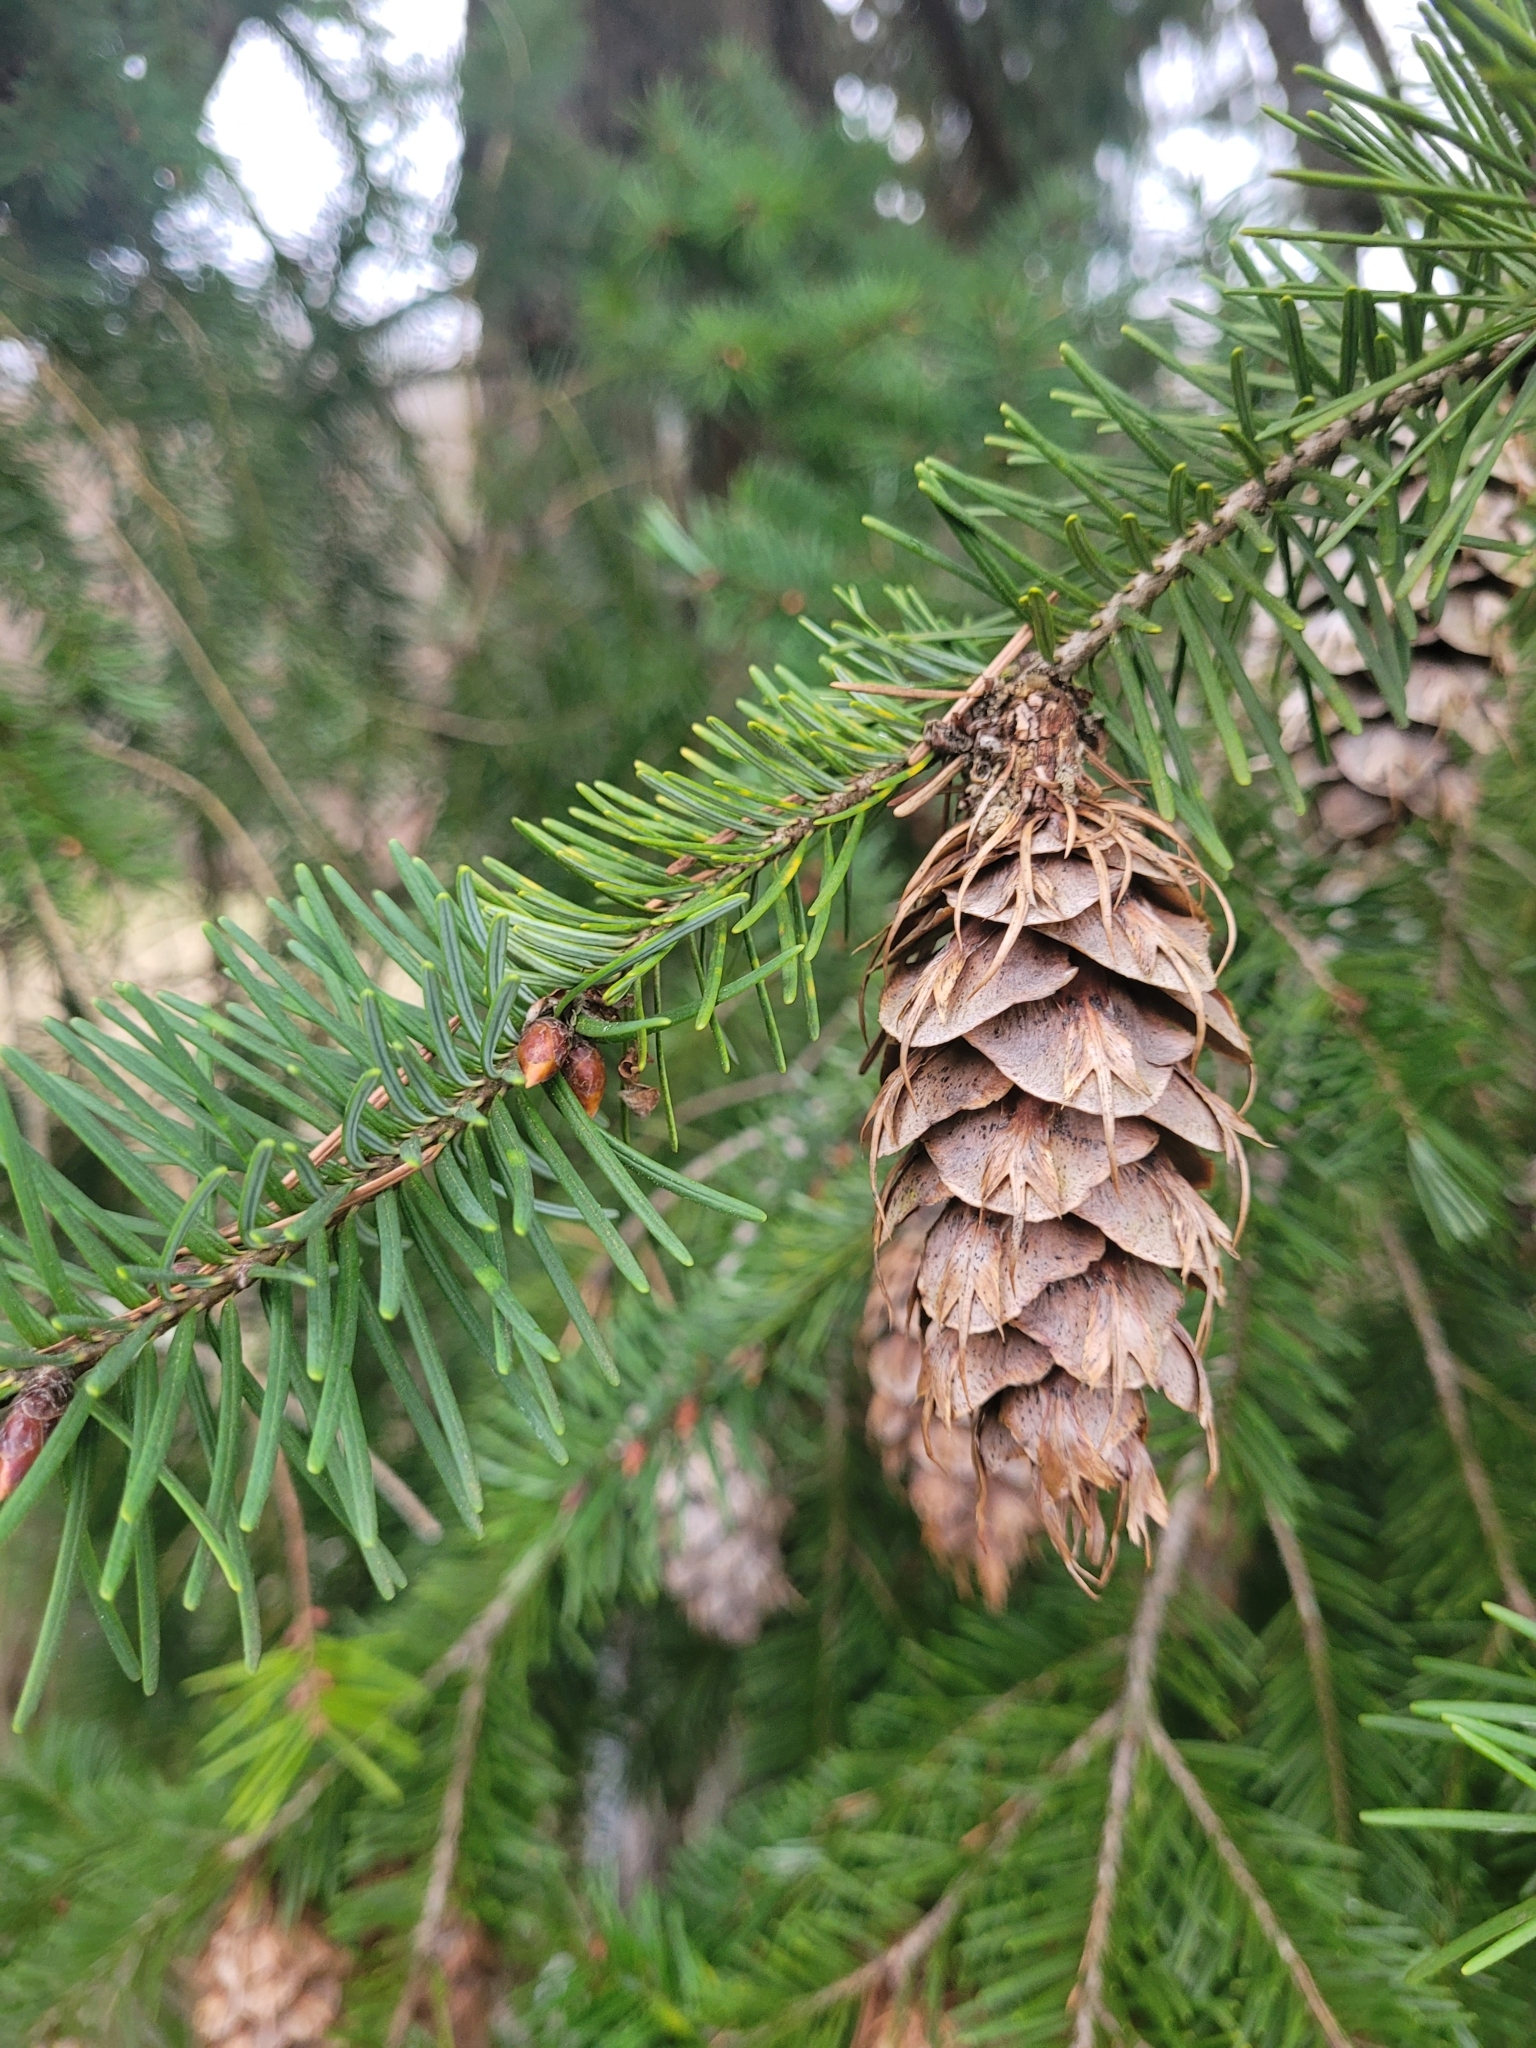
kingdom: Plantae
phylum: Tracheophyta
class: Pinopsida
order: Pinales
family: Pinaceae
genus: Pseudotsuga
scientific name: Pseudotsuga menziesii
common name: Douglas fir
